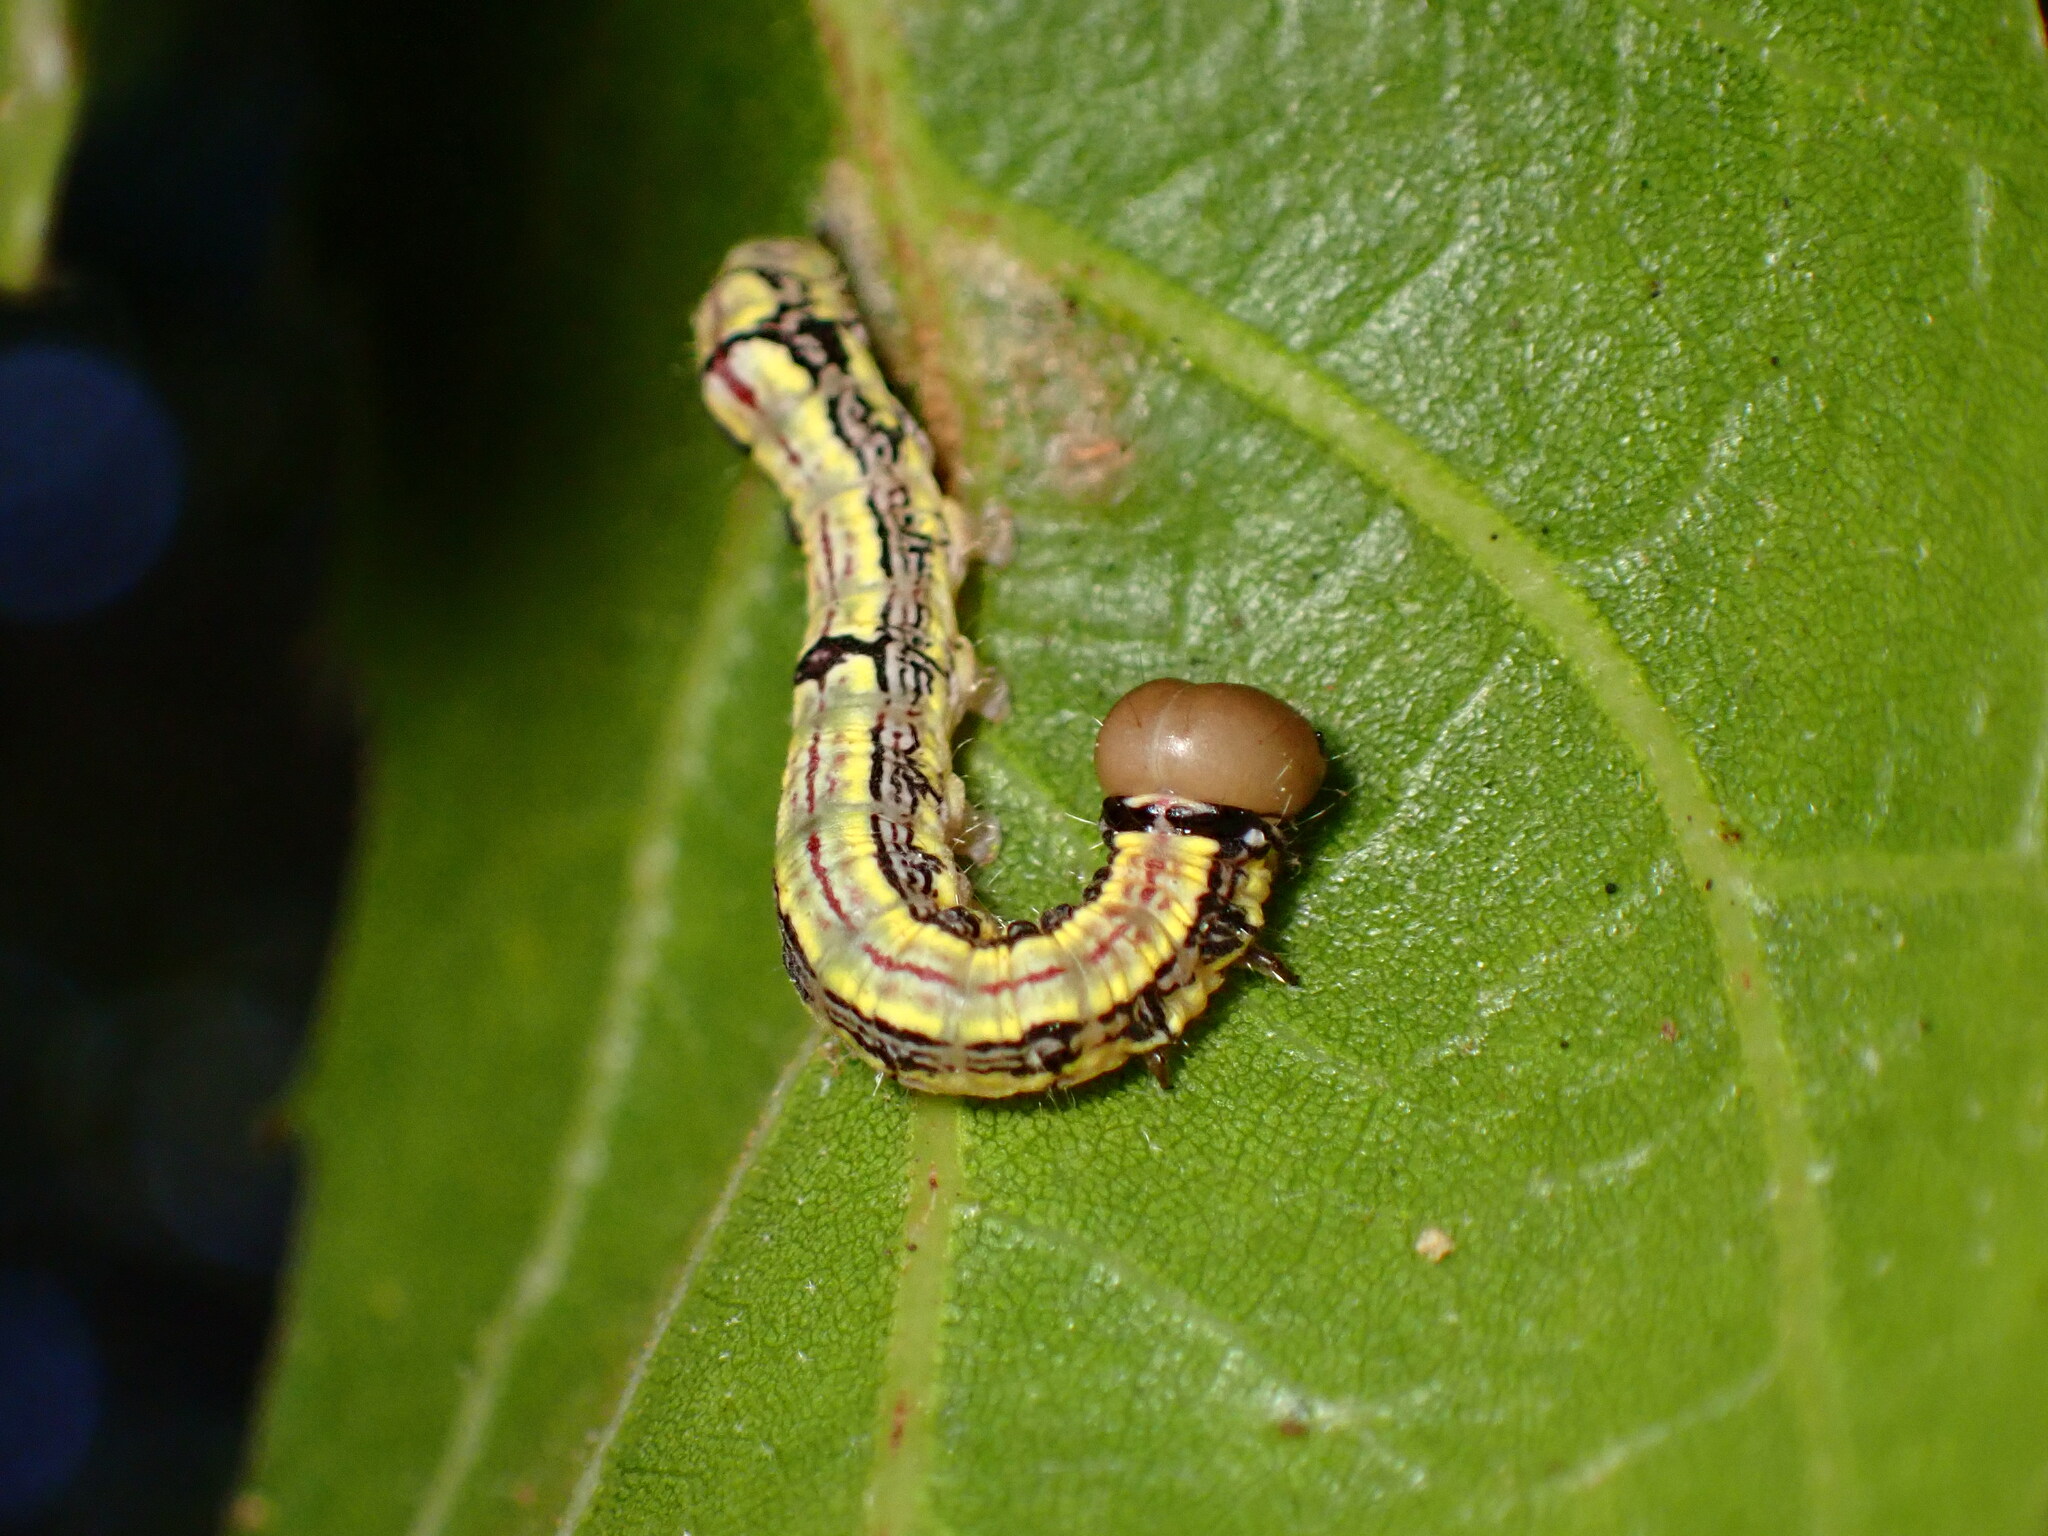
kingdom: Animalia
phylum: Arthropoda
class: Insecta
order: Lepidoptera
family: Notodontidae
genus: Phryganidia
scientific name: Phryganidia californica
